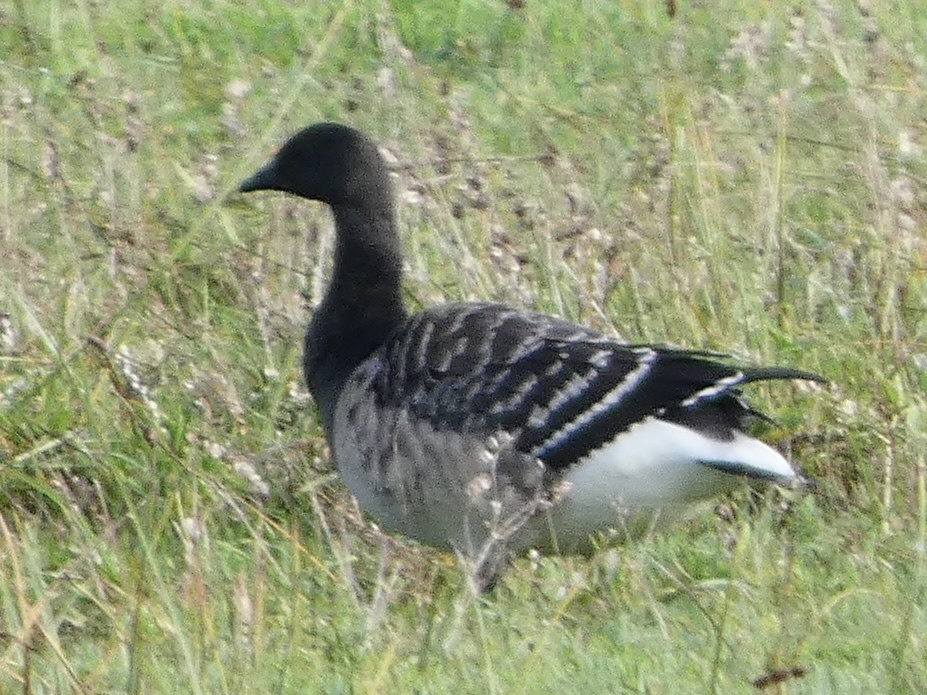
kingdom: Animalia
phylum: Chordata
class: Aves
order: Anseriformes
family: Anatidae
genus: Branta
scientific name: Branta bernicla
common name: Brant goose
